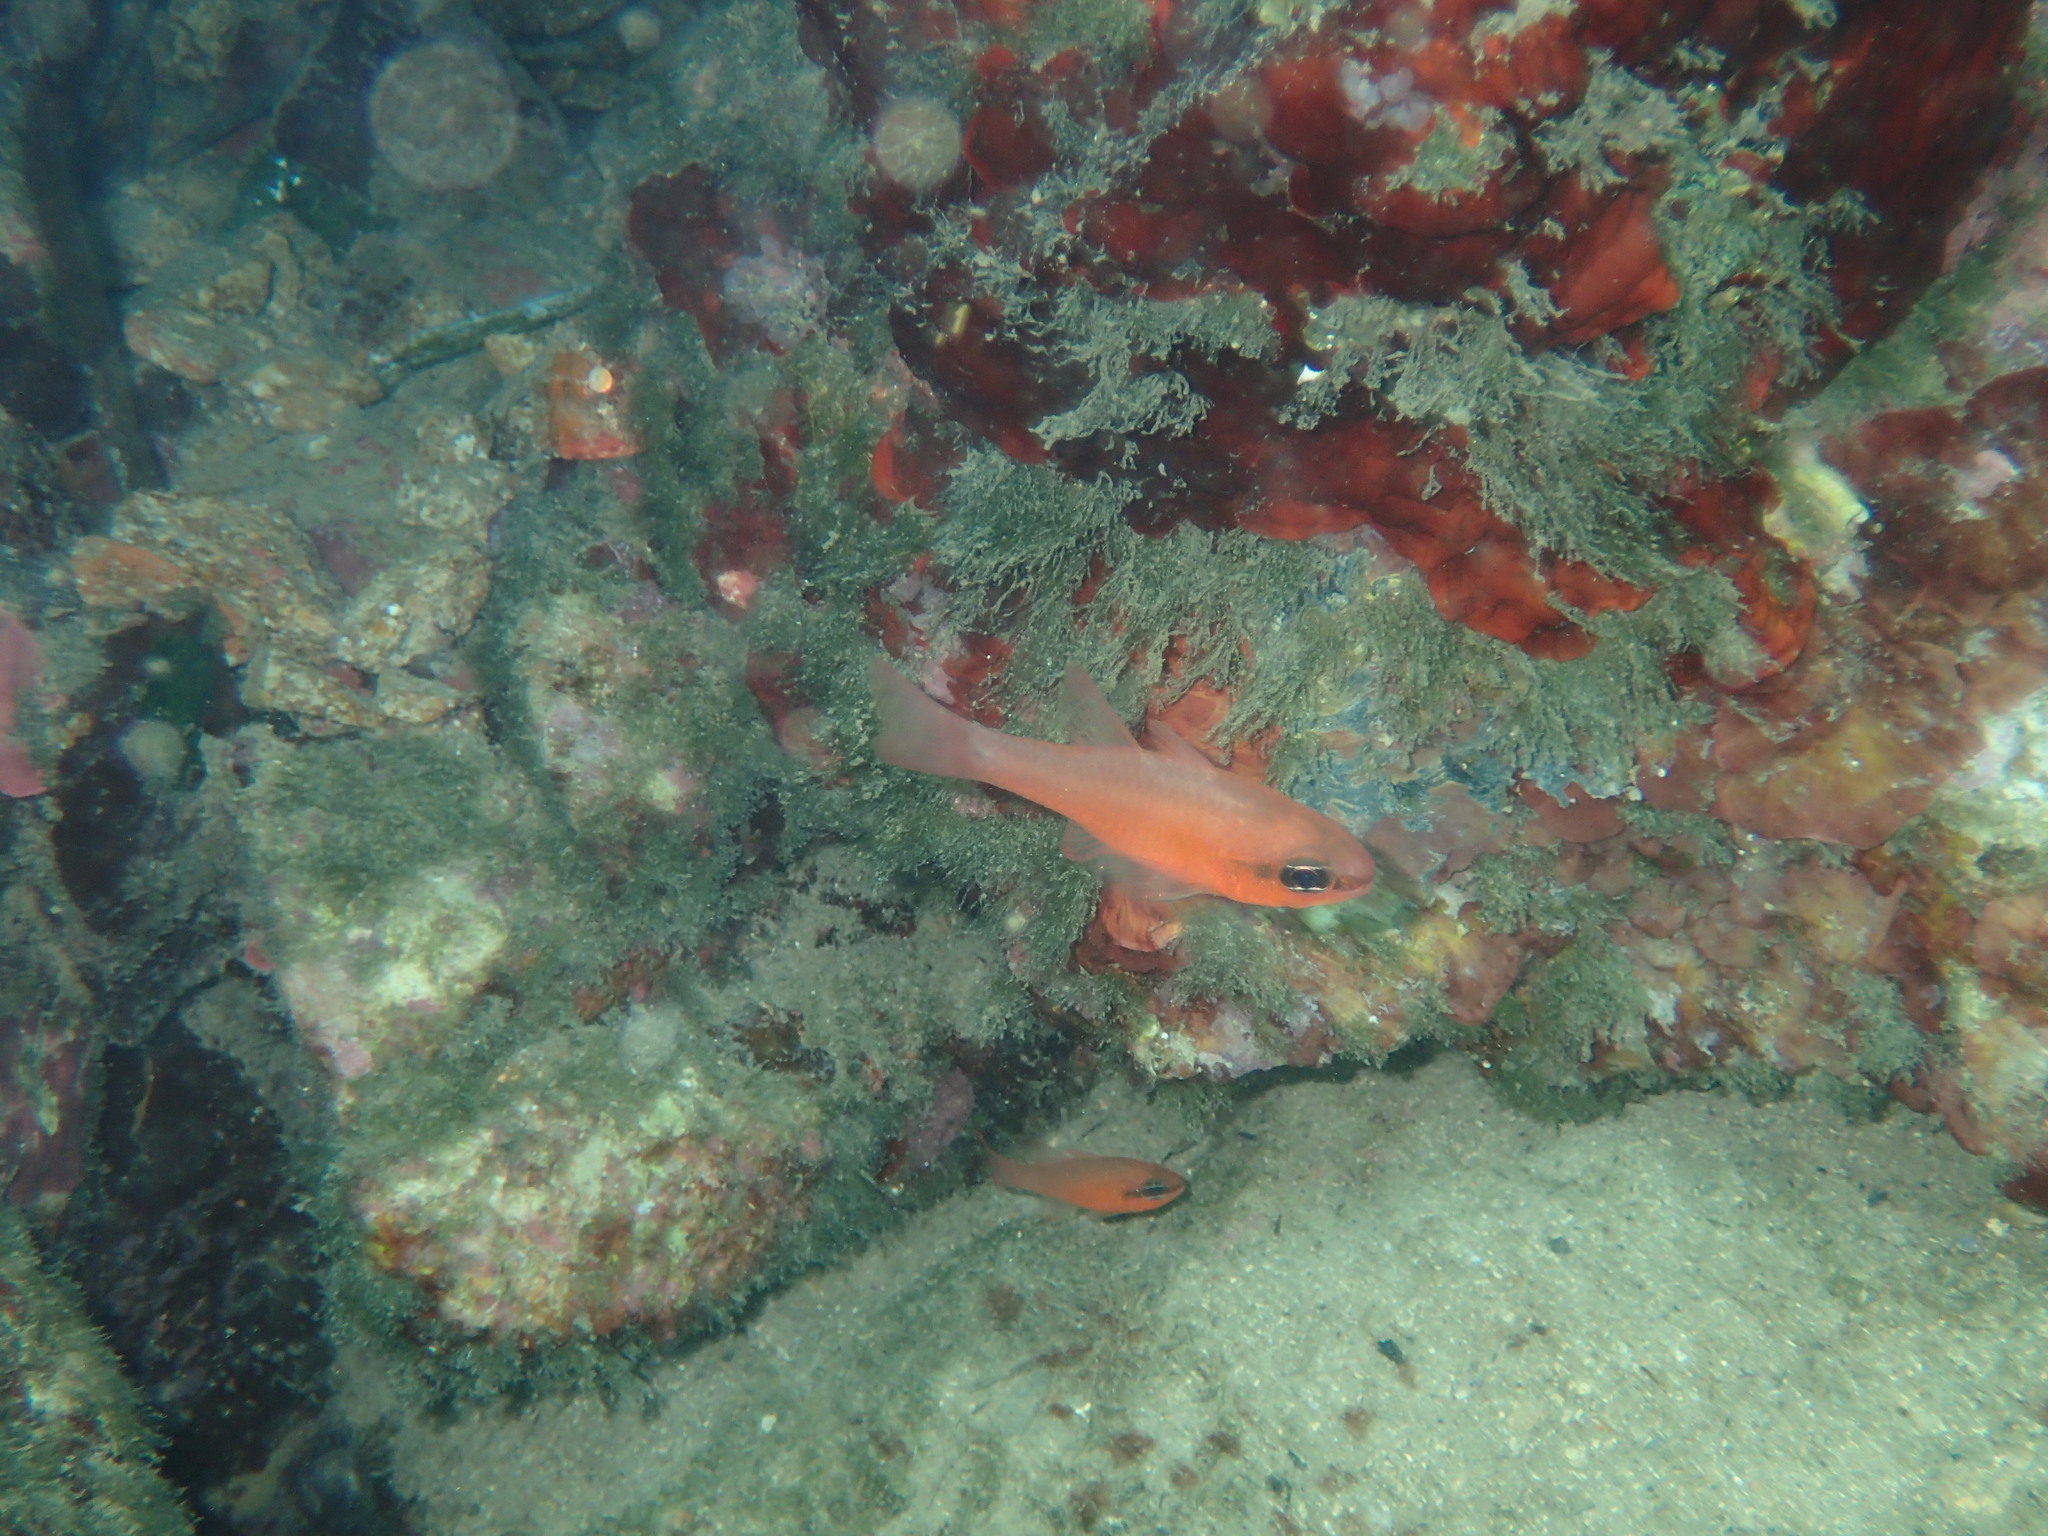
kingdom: Animalia
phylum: Chordata
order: Perciformes
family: Apogonidae
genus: Apogon
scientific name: Apogon imberbis
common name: Cardinal fish
